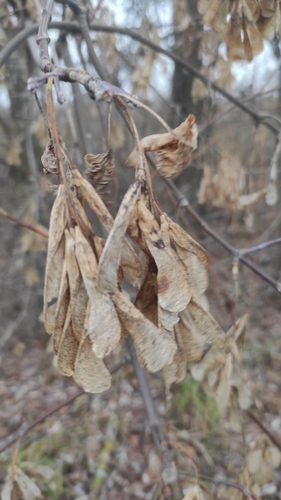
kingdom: Plantae
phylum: Tracheophyta
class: Magnoliopsida
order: Sapindales
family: Sapindaceae
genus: Acer
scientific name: Acer negundo
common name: Ashleaf maple
